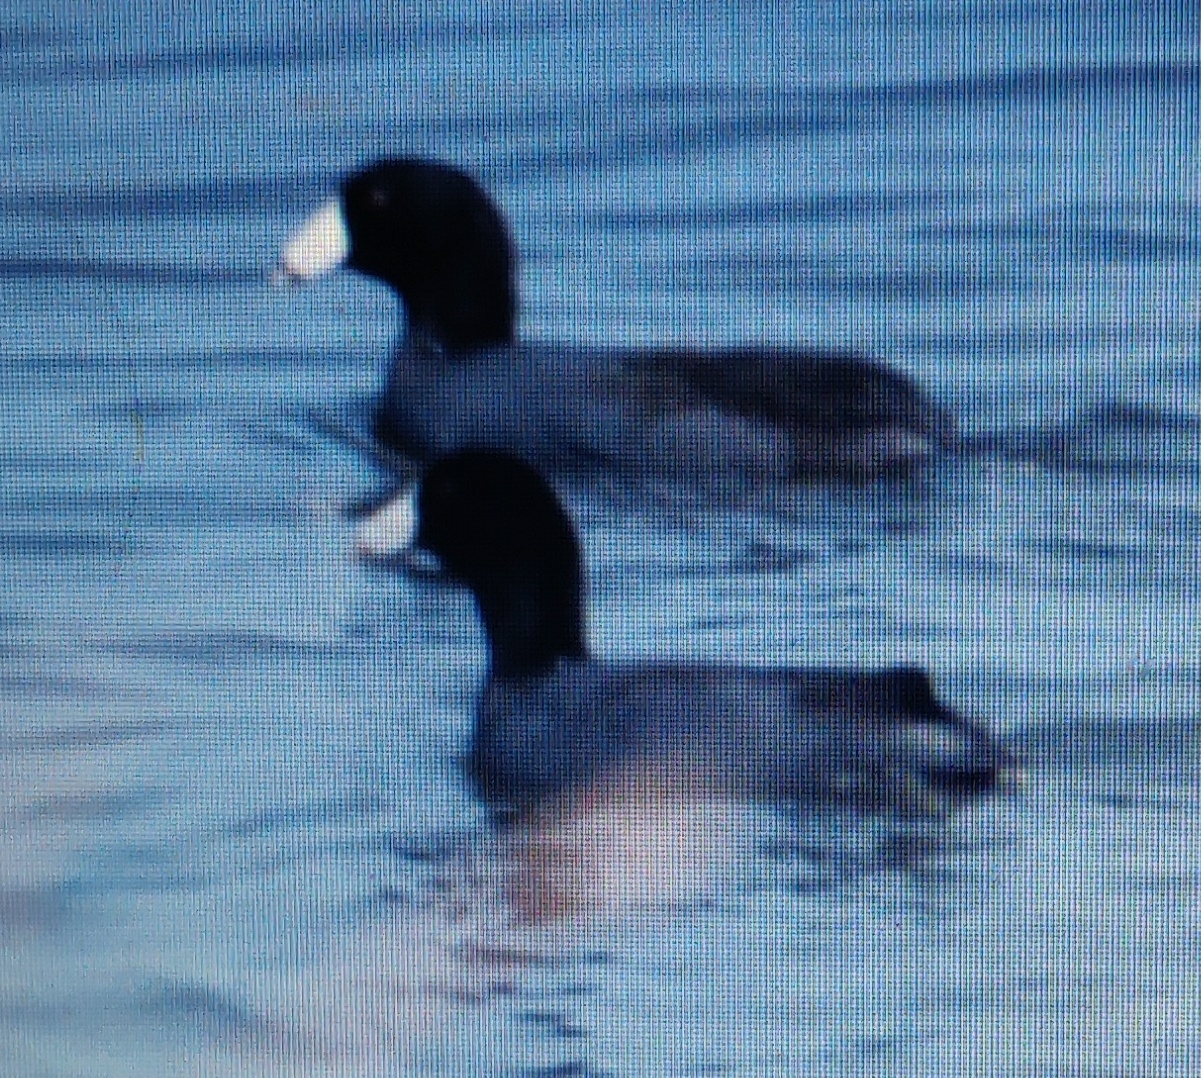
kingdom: Animalia
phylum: Chordata
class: Aves
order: Gruiformes
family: Rallidae
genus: Fulica
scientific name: Fulica americana
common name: American coot
